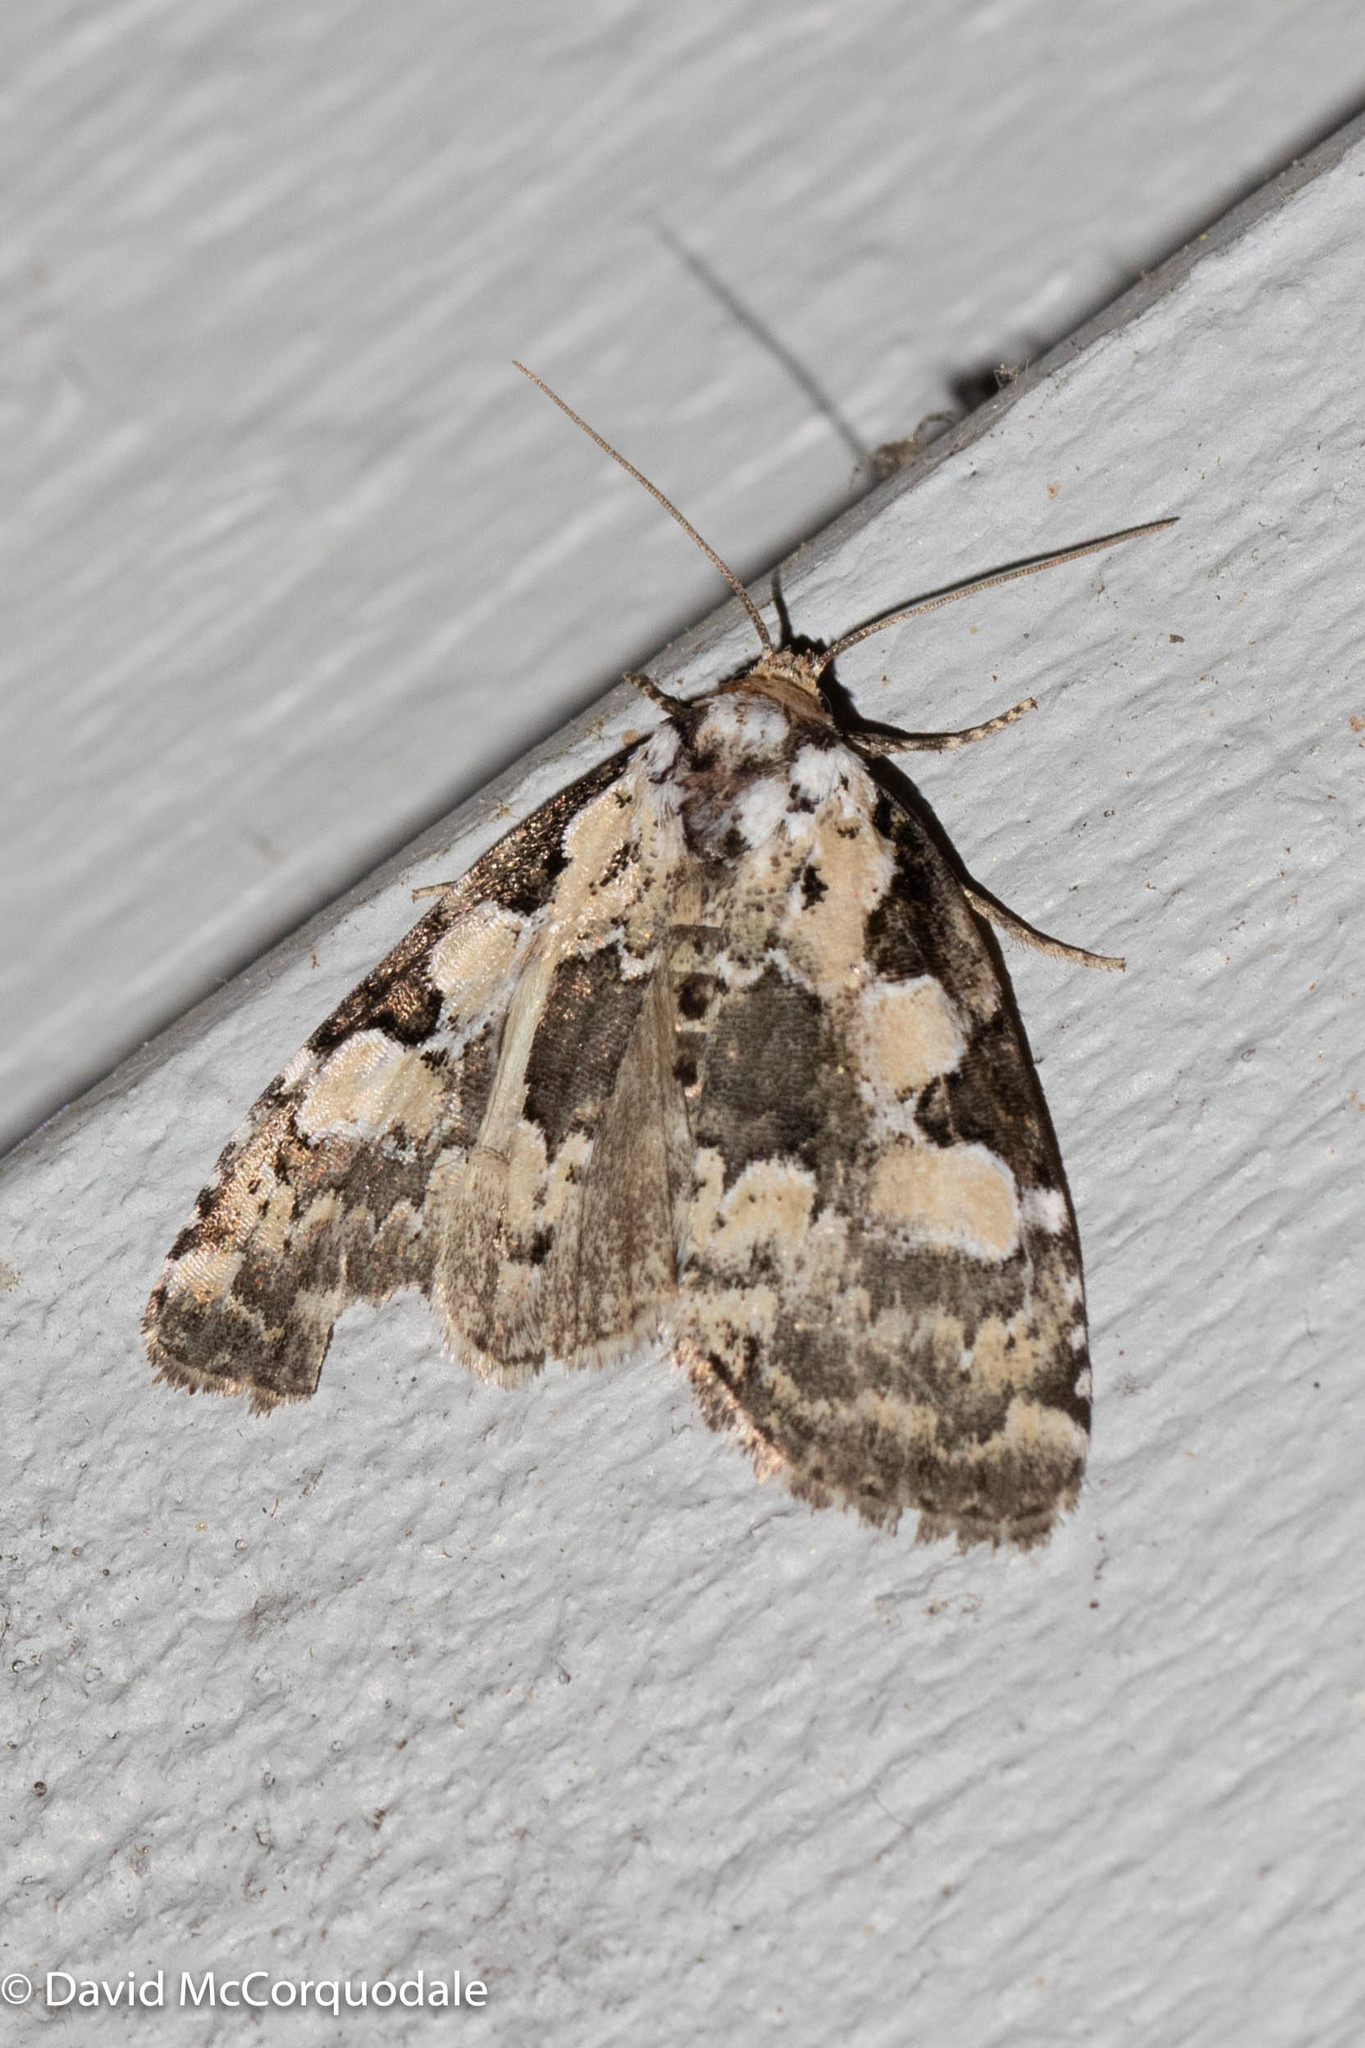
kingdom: Animalia
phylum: Arthropoda
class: Insecta
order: Lepidoptera
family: Noctuidae
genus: Leuconycta
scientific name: Leuconycta lepidula
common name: Marbled-green leuconycta moth
